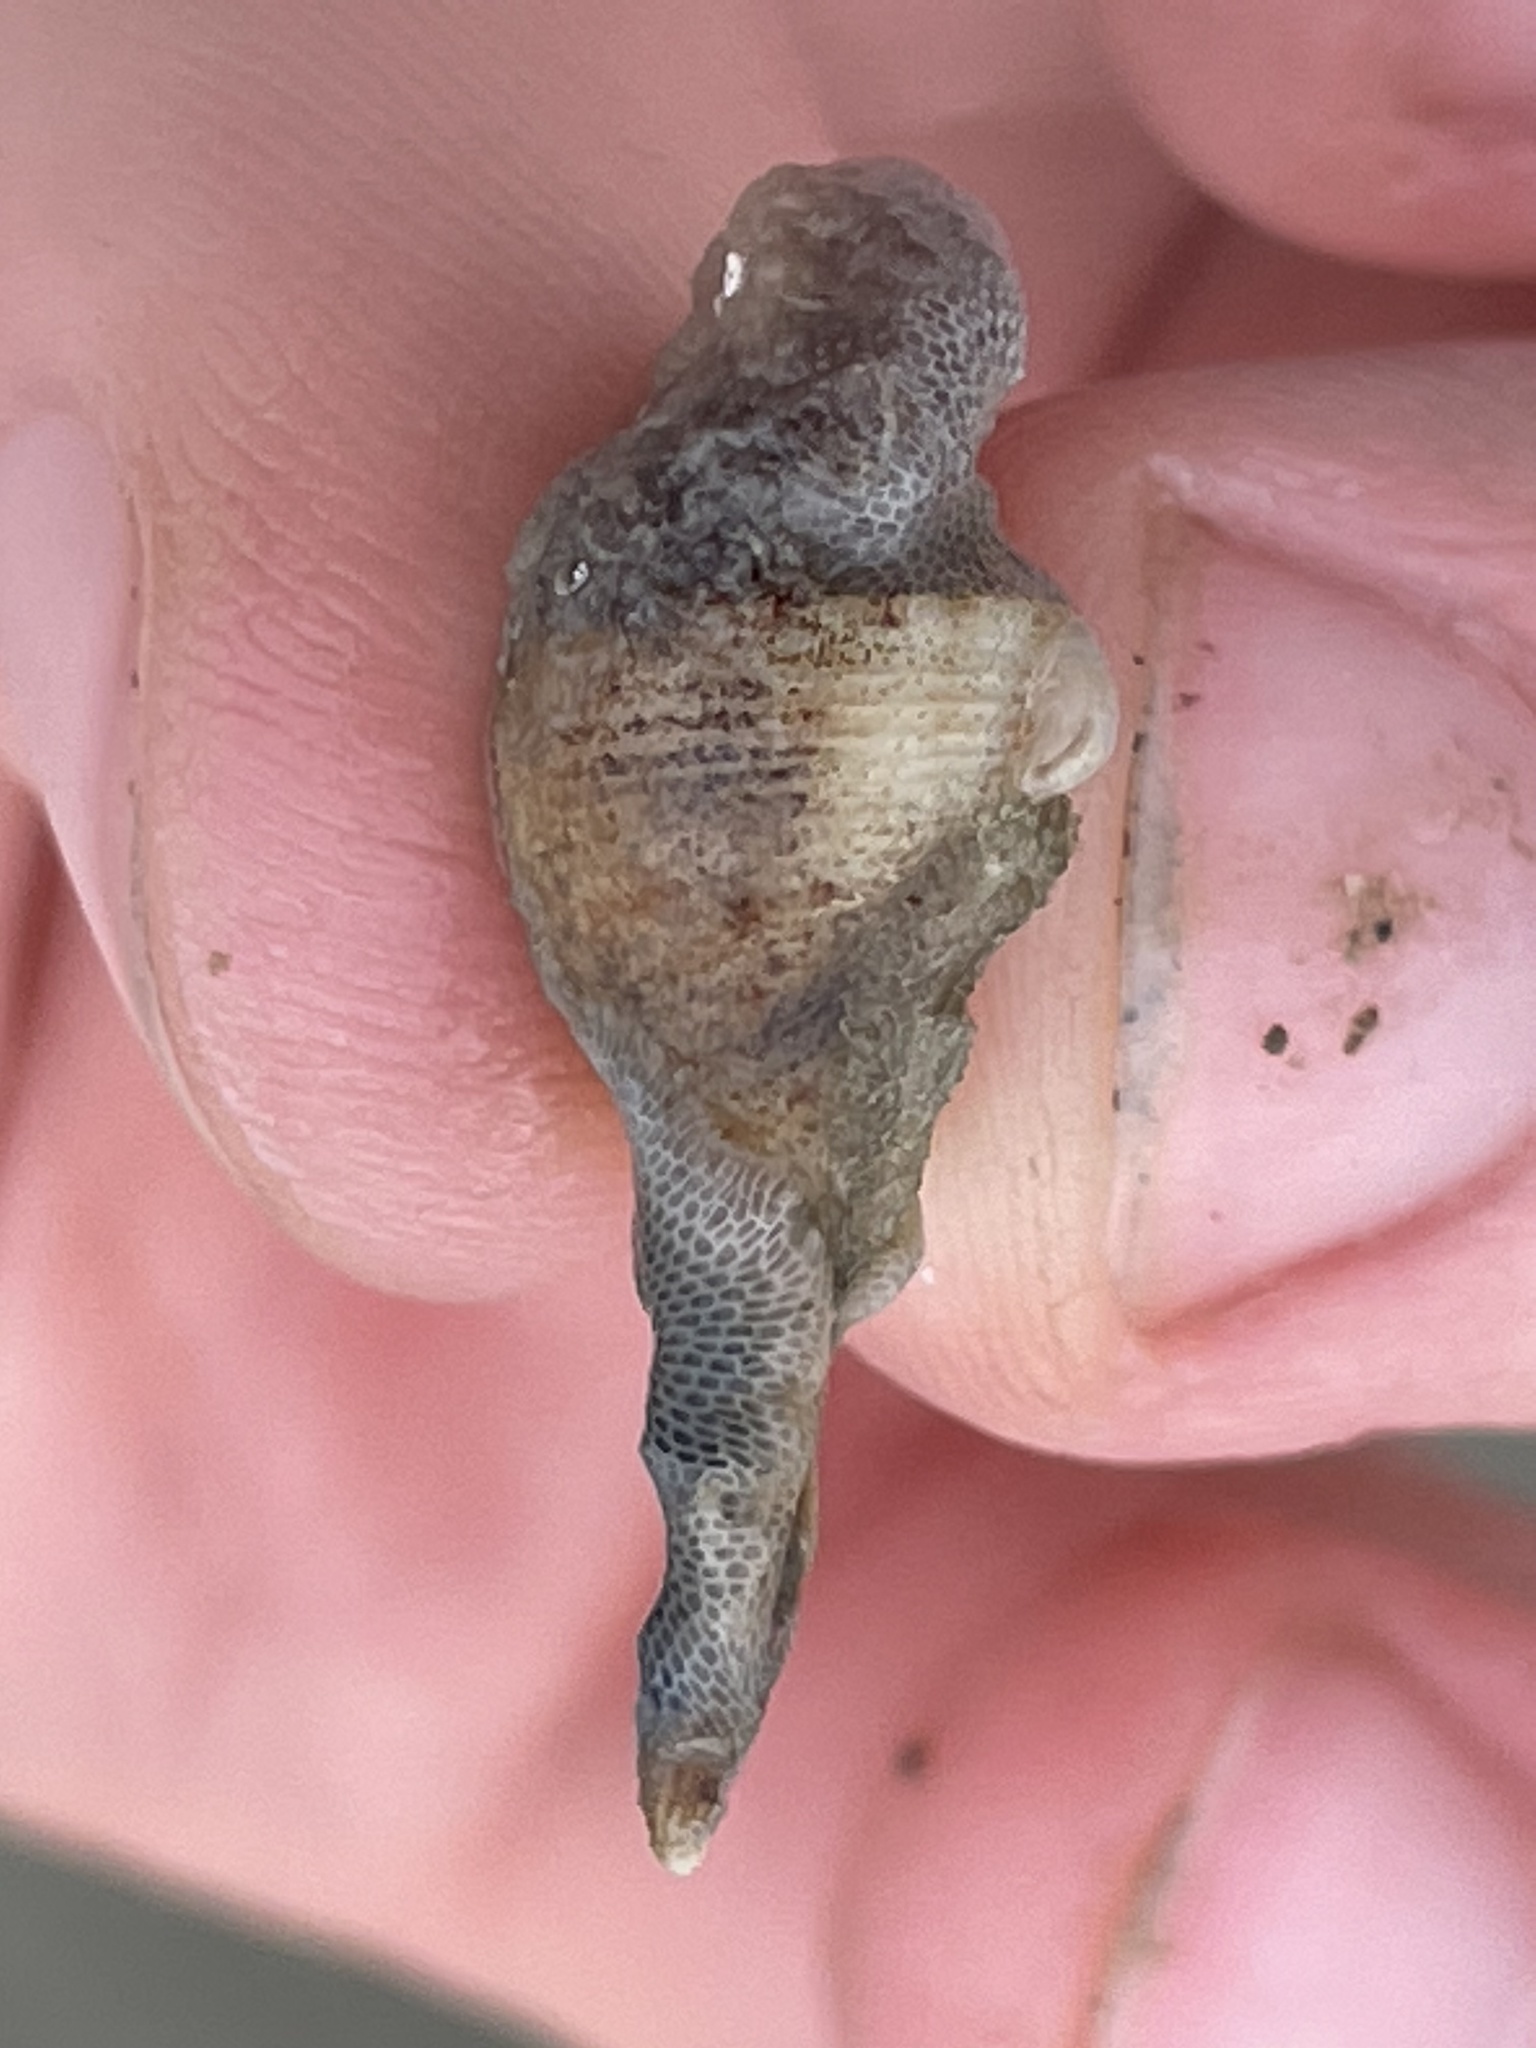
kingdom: Animalia
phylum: Mollusca
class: Gastropoda
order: Neogastropoda
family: Busyconidae
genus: Fulguropsis
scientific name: Fulguropsis pyruloides
